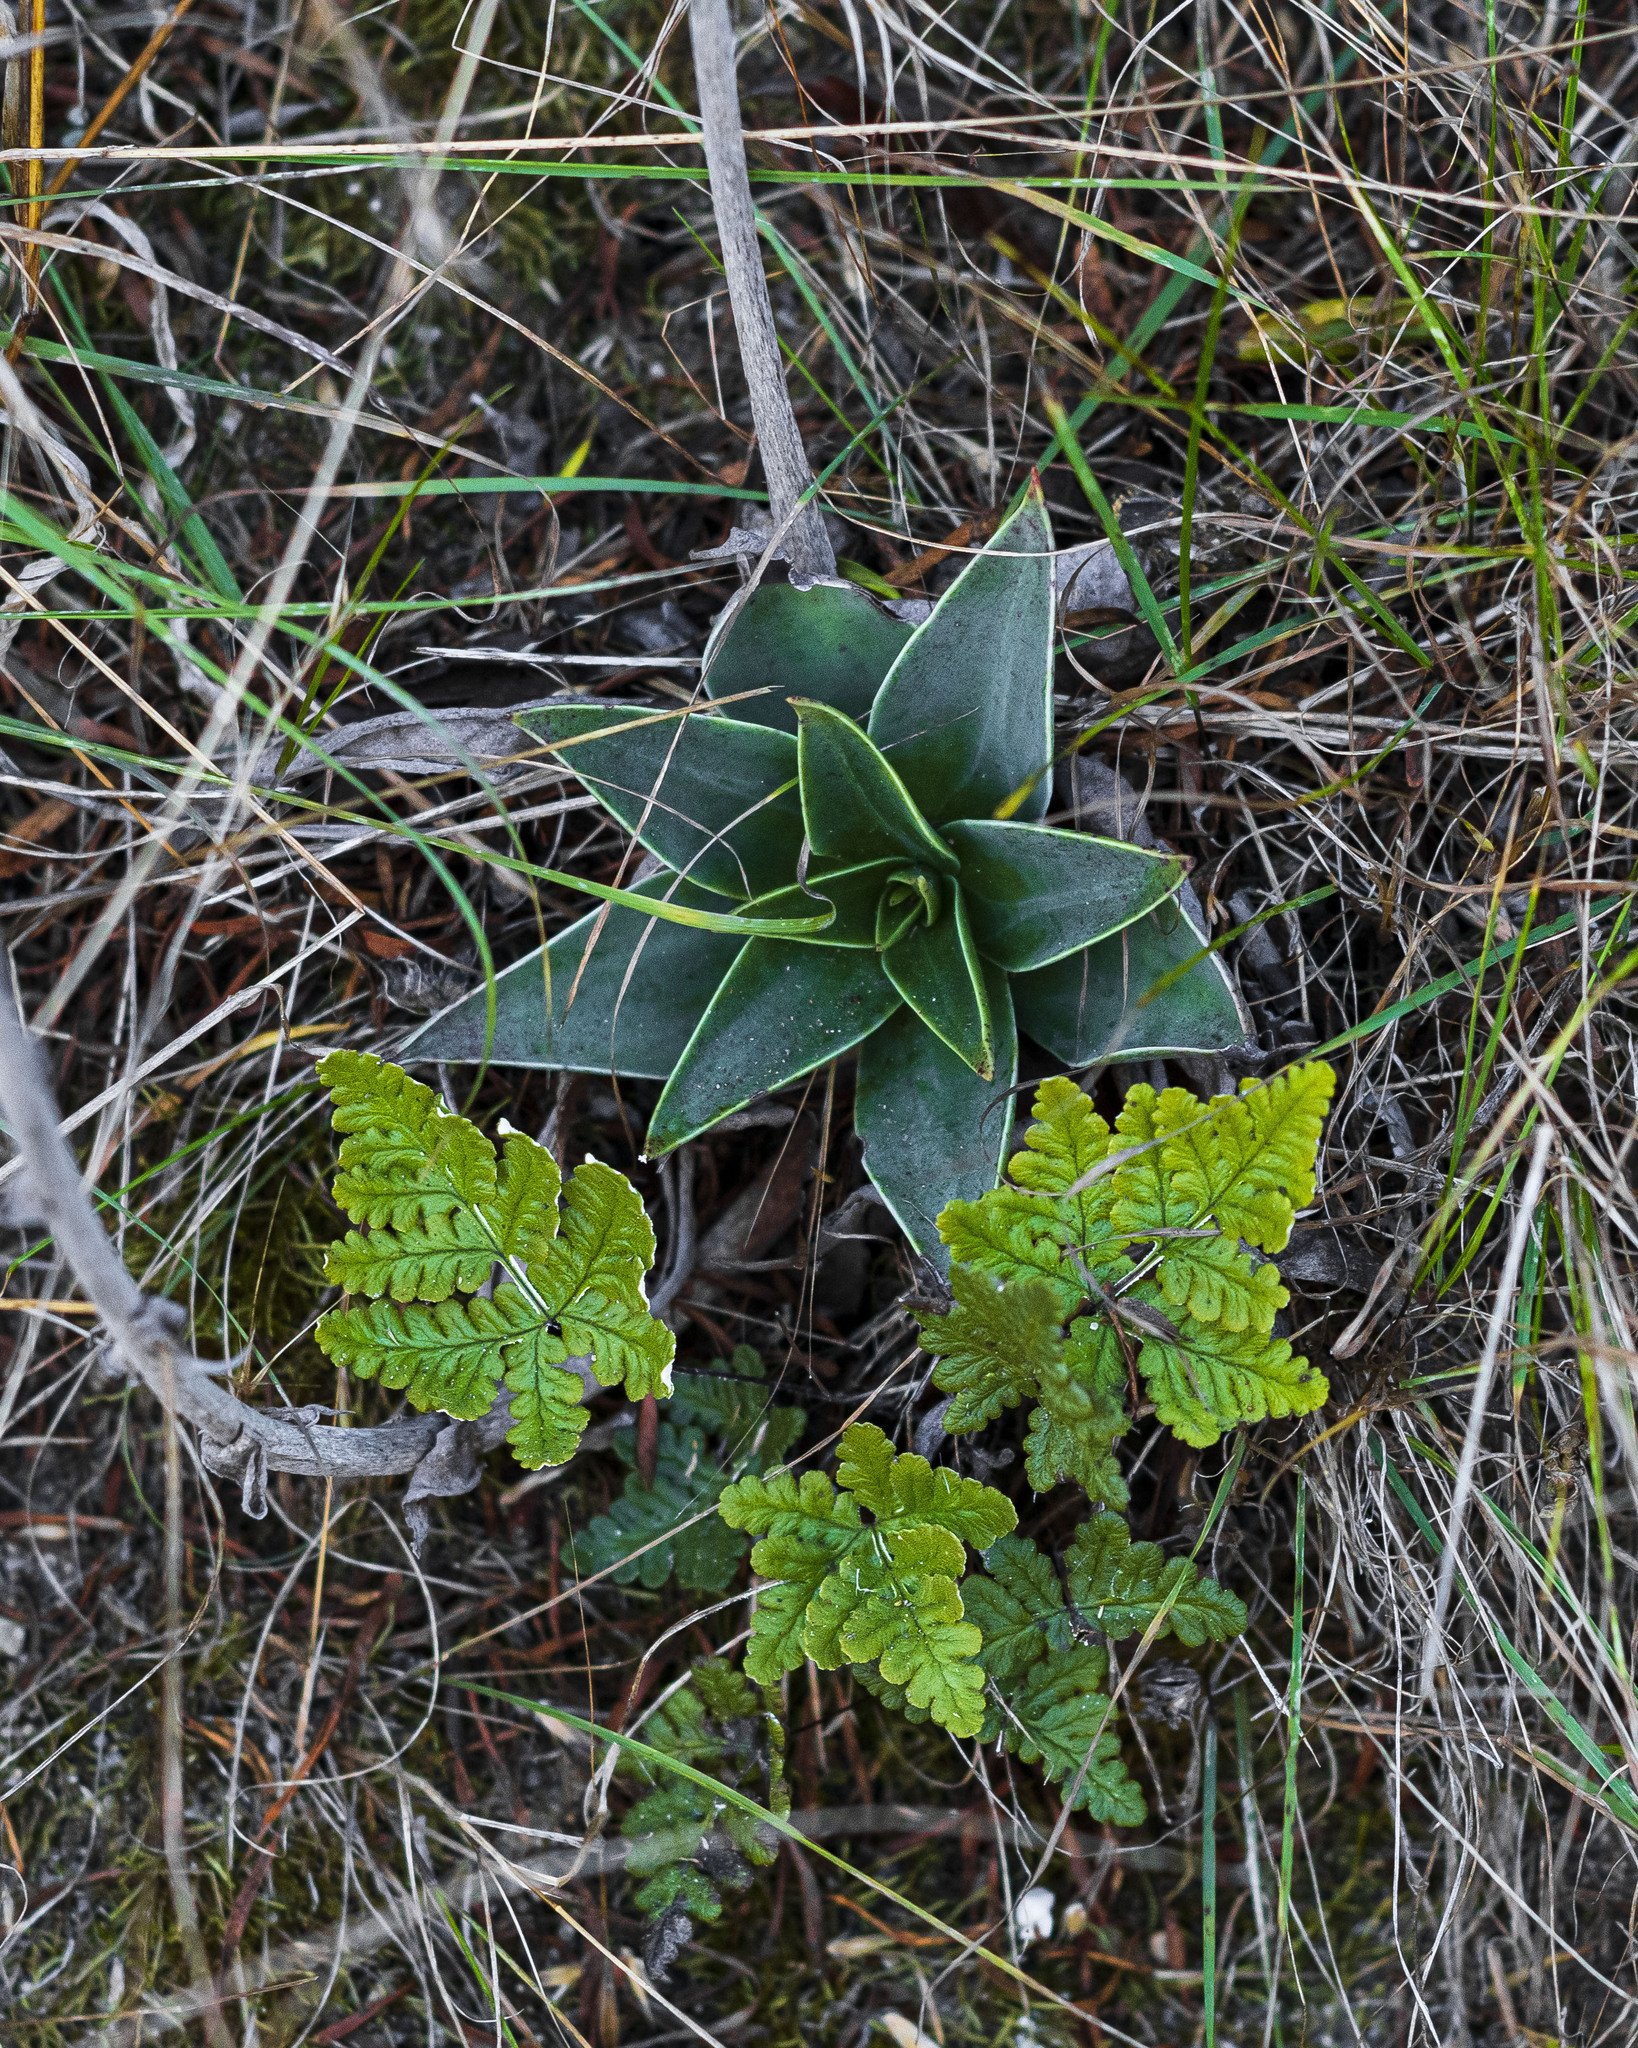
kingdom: Plantae
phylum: Tracheophyta
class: Polypodiopsida
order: Polypodiales
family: Pteridaceae
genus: Pentagramma
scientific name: Pentagramma glanduloviscida
